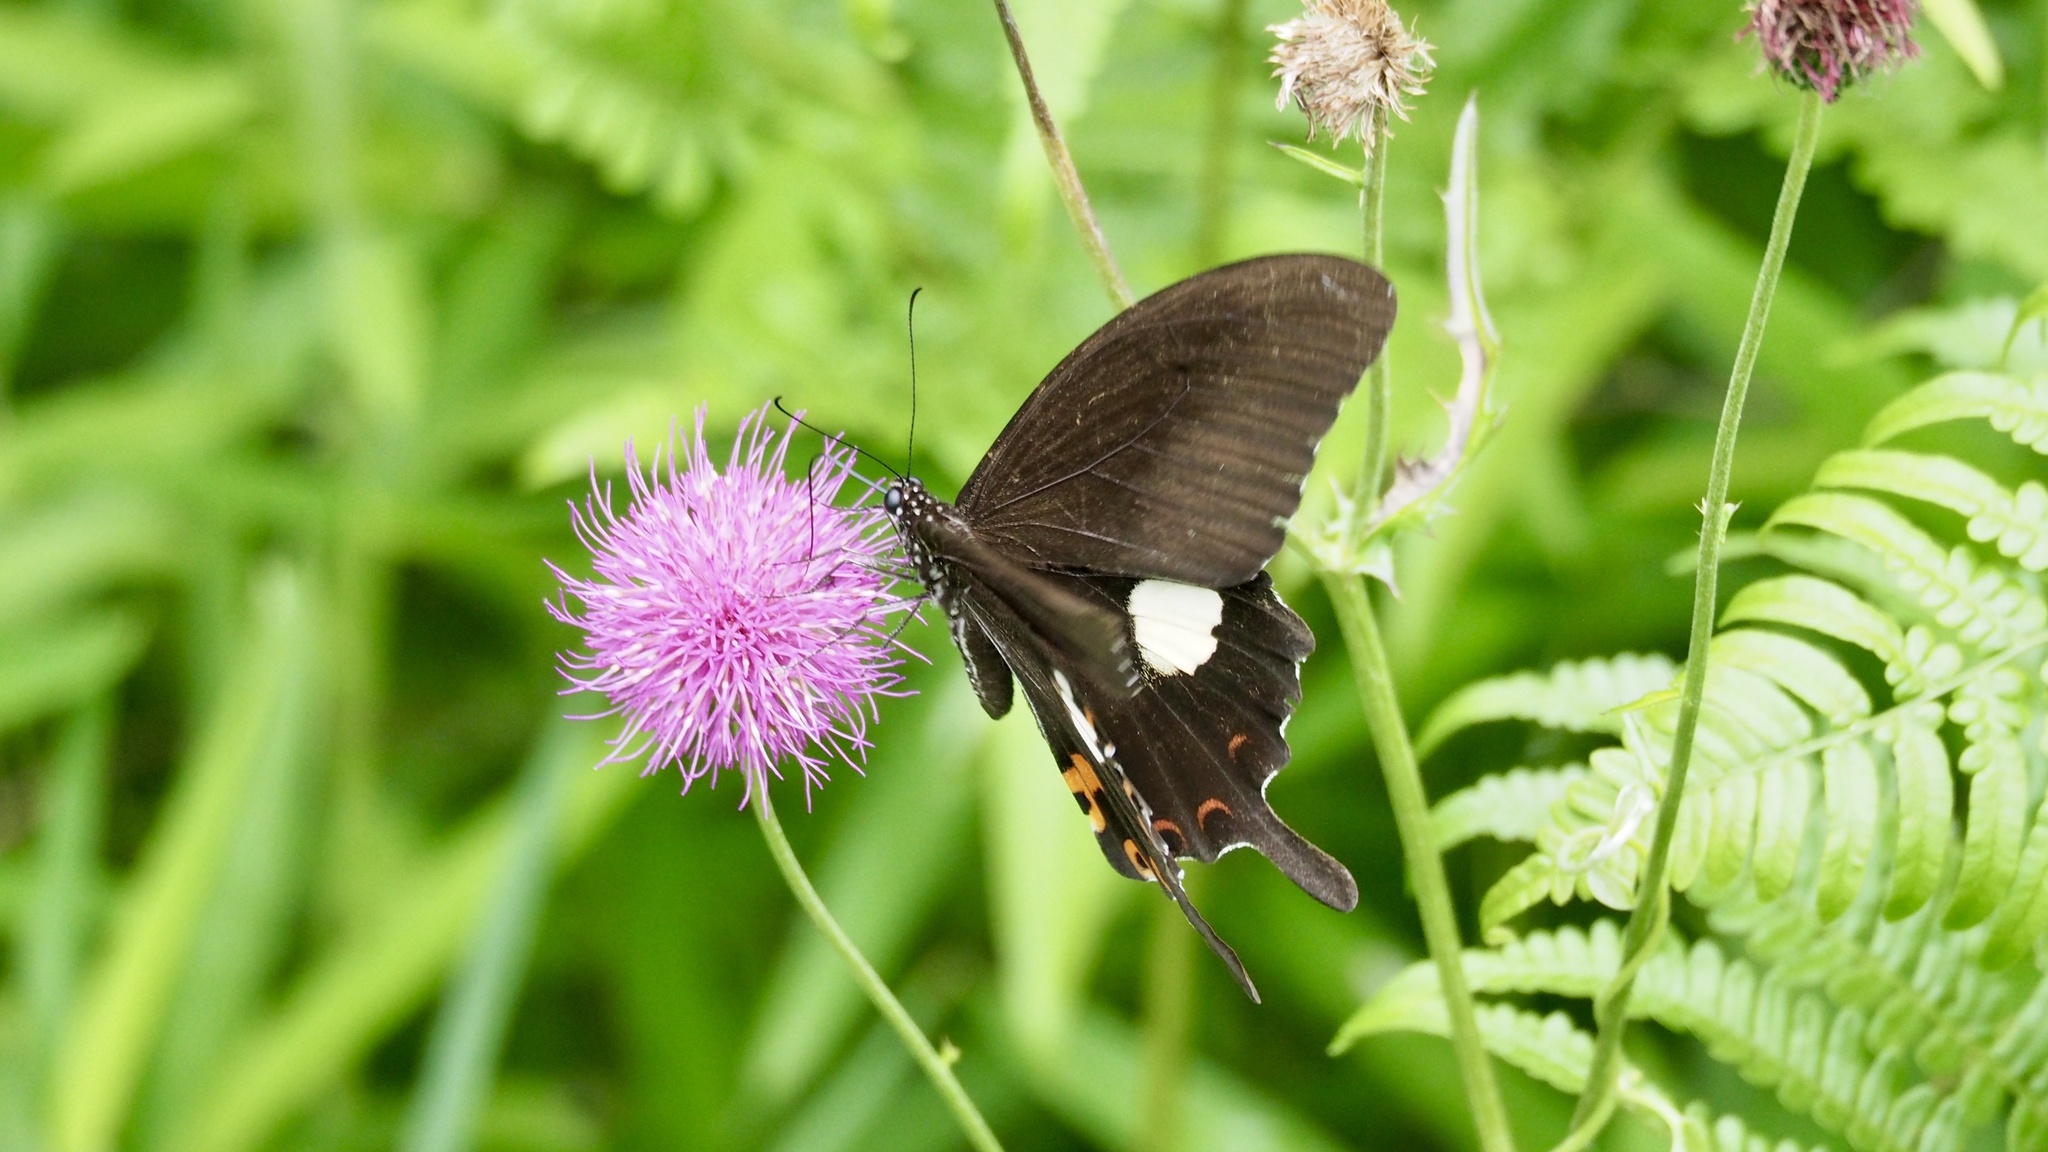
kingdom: Animalia
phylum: Arthropoda
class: Insecta
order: Lepidoptera
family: Papilionidae
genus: Papilio
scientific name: Papilio helenus
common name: Red helen
